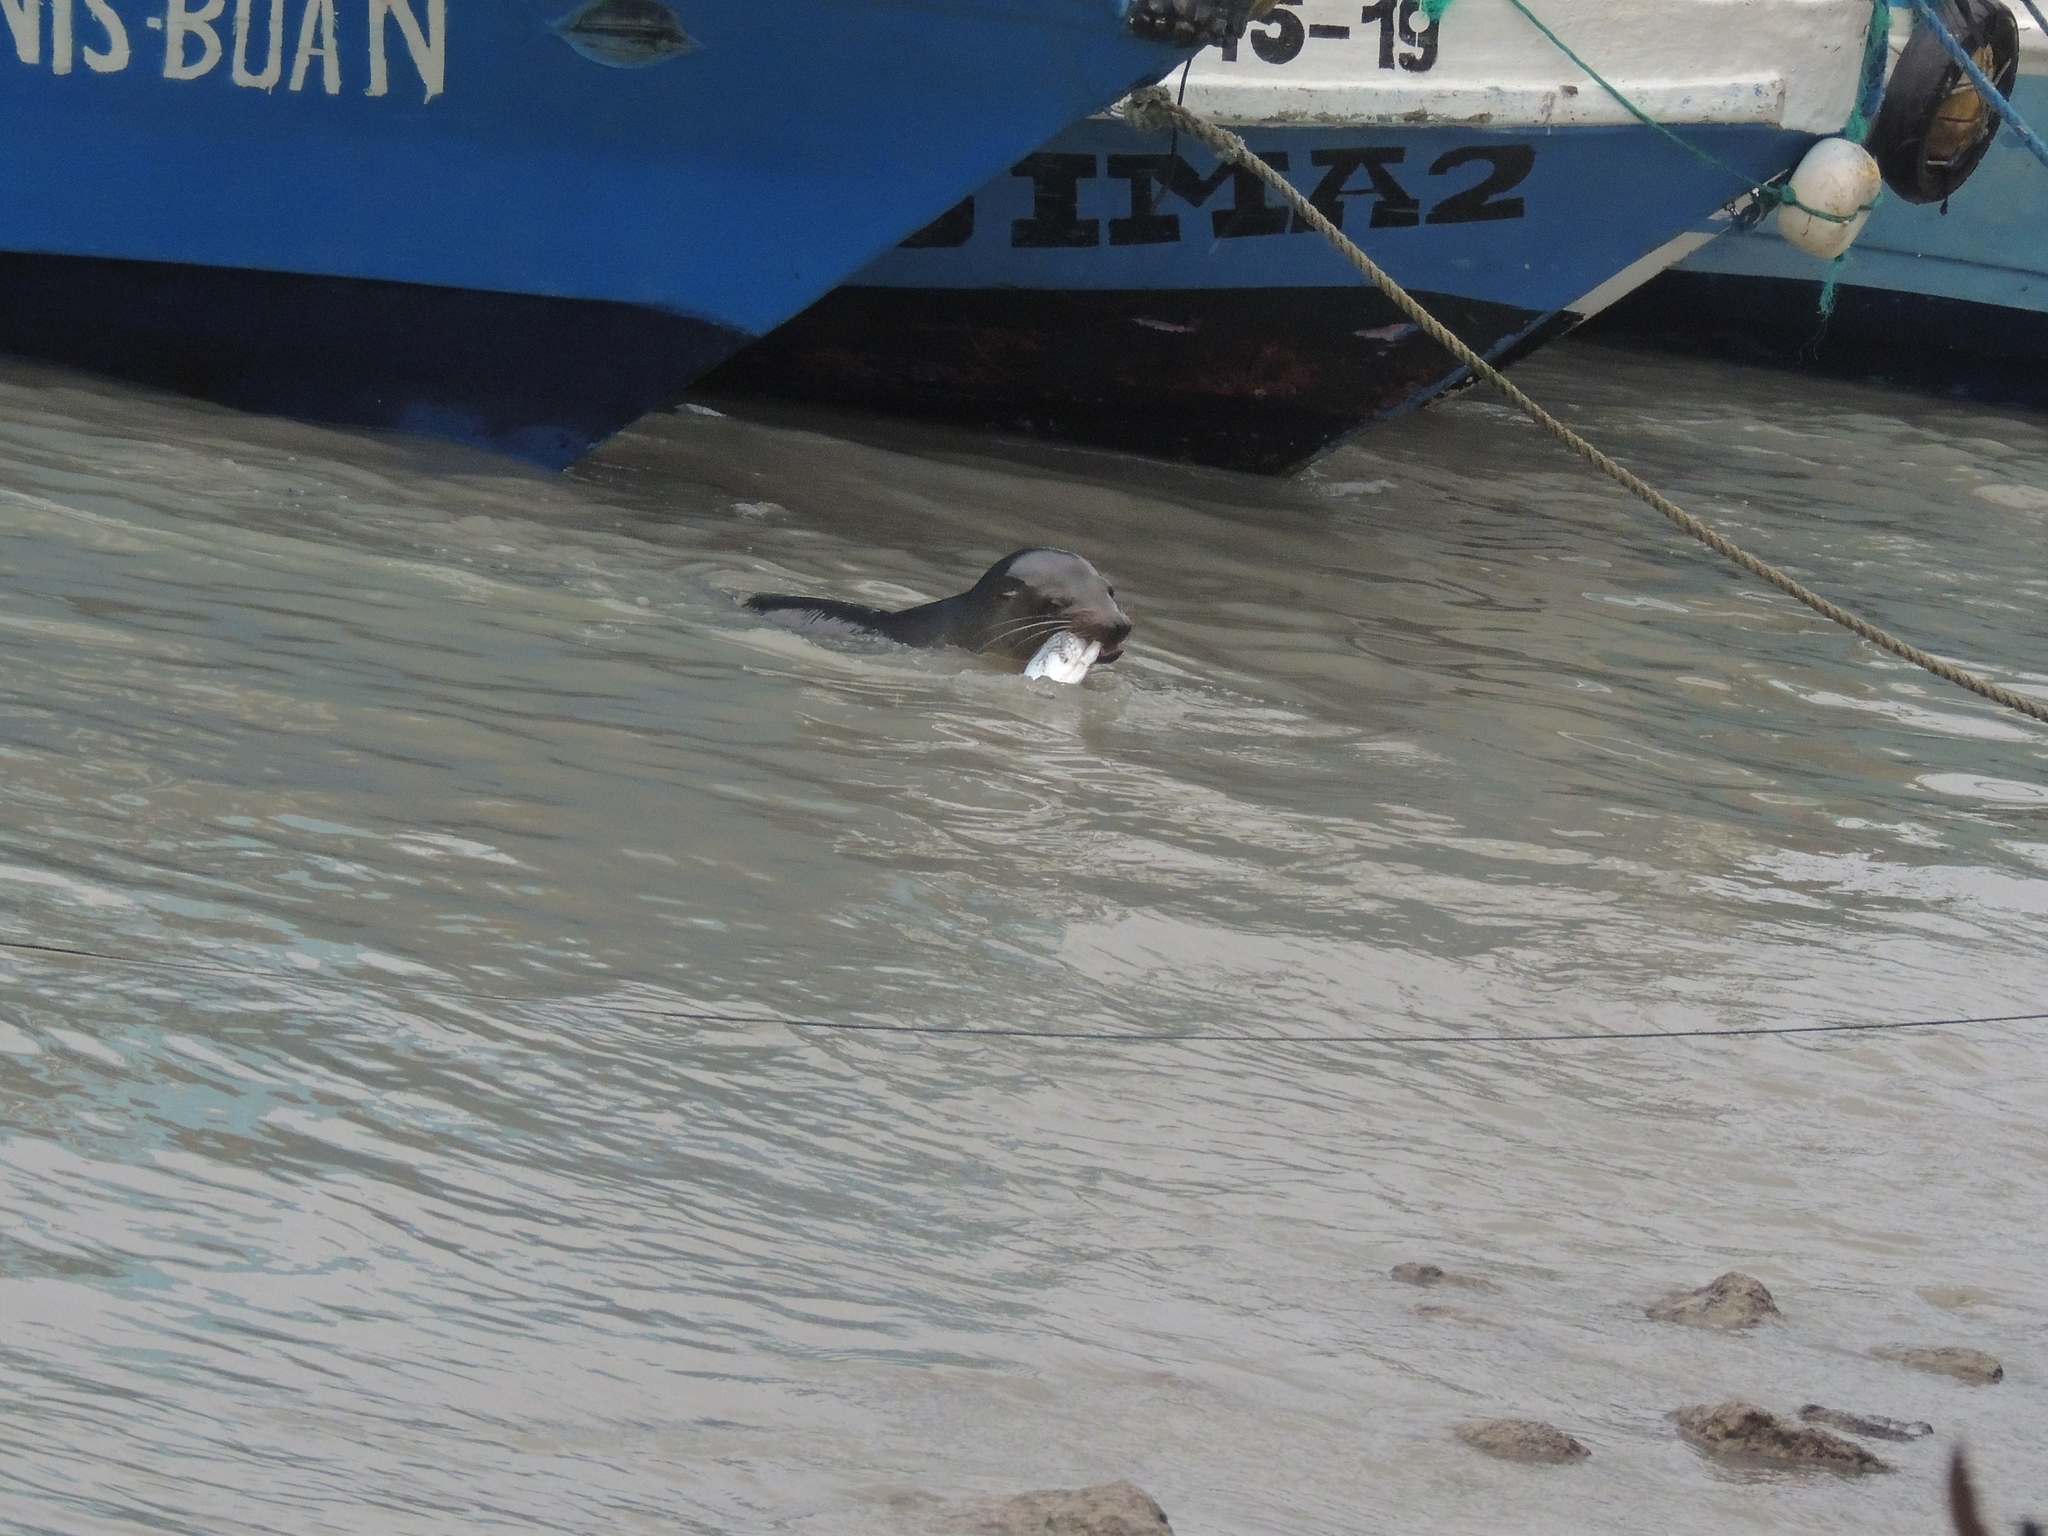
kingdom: Animalia
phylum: Chordata
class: Mammalia
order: Carnivora
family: Otariidae
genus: Zalophus
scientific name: Zalophus wollebaeki
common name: Galapagos sea lion
